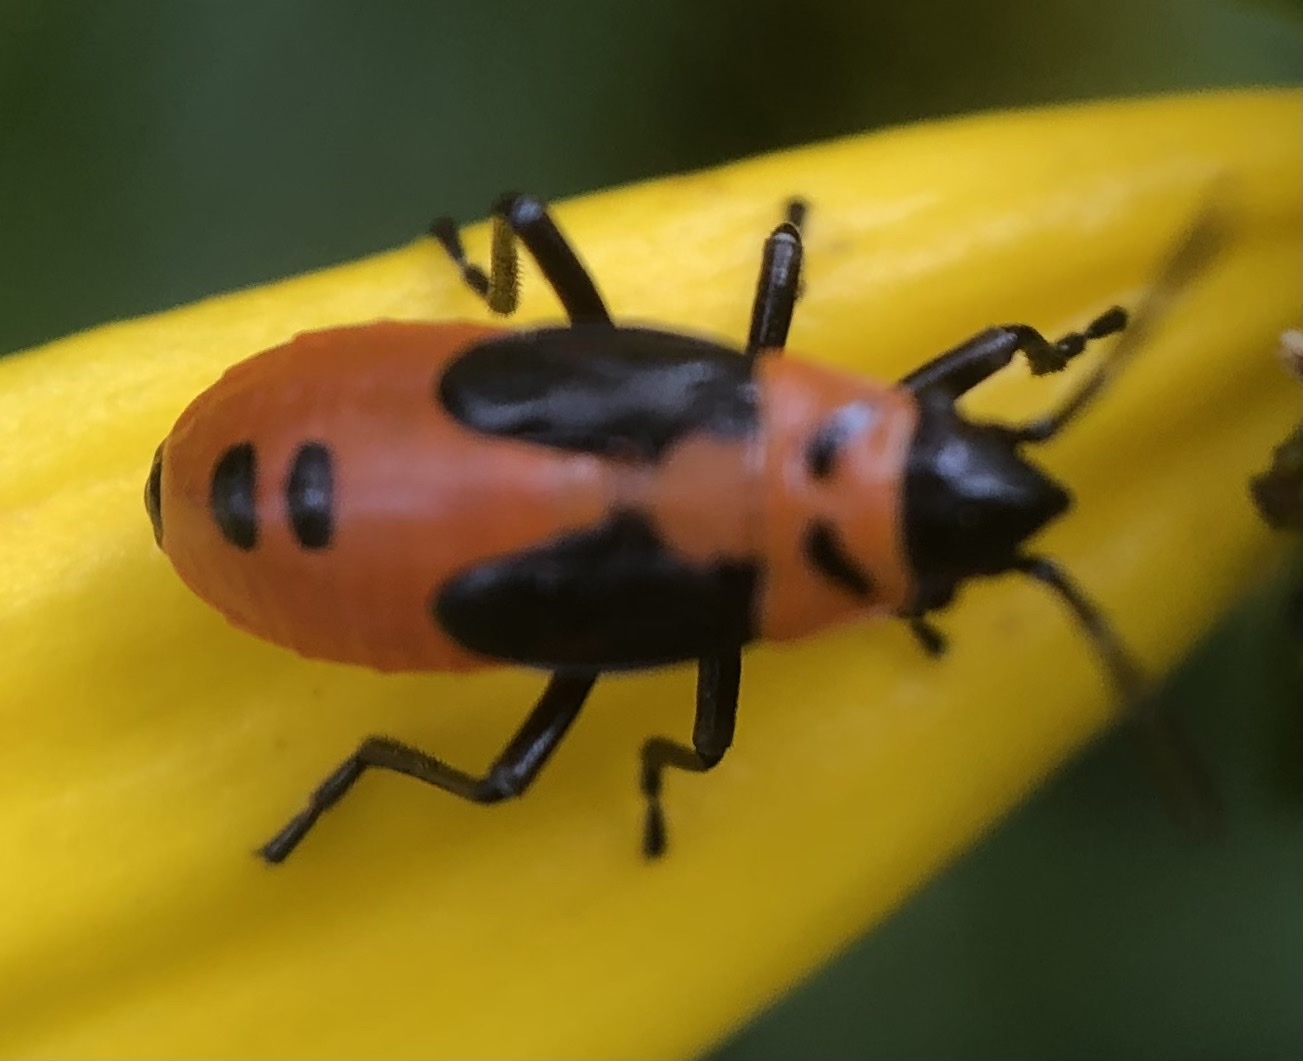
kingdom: Animalia
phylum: Arthropoda
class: Insecta
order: Hemiptera
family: Lygaeidae
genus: Lygaeus
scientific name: Lygaeus turcicus
